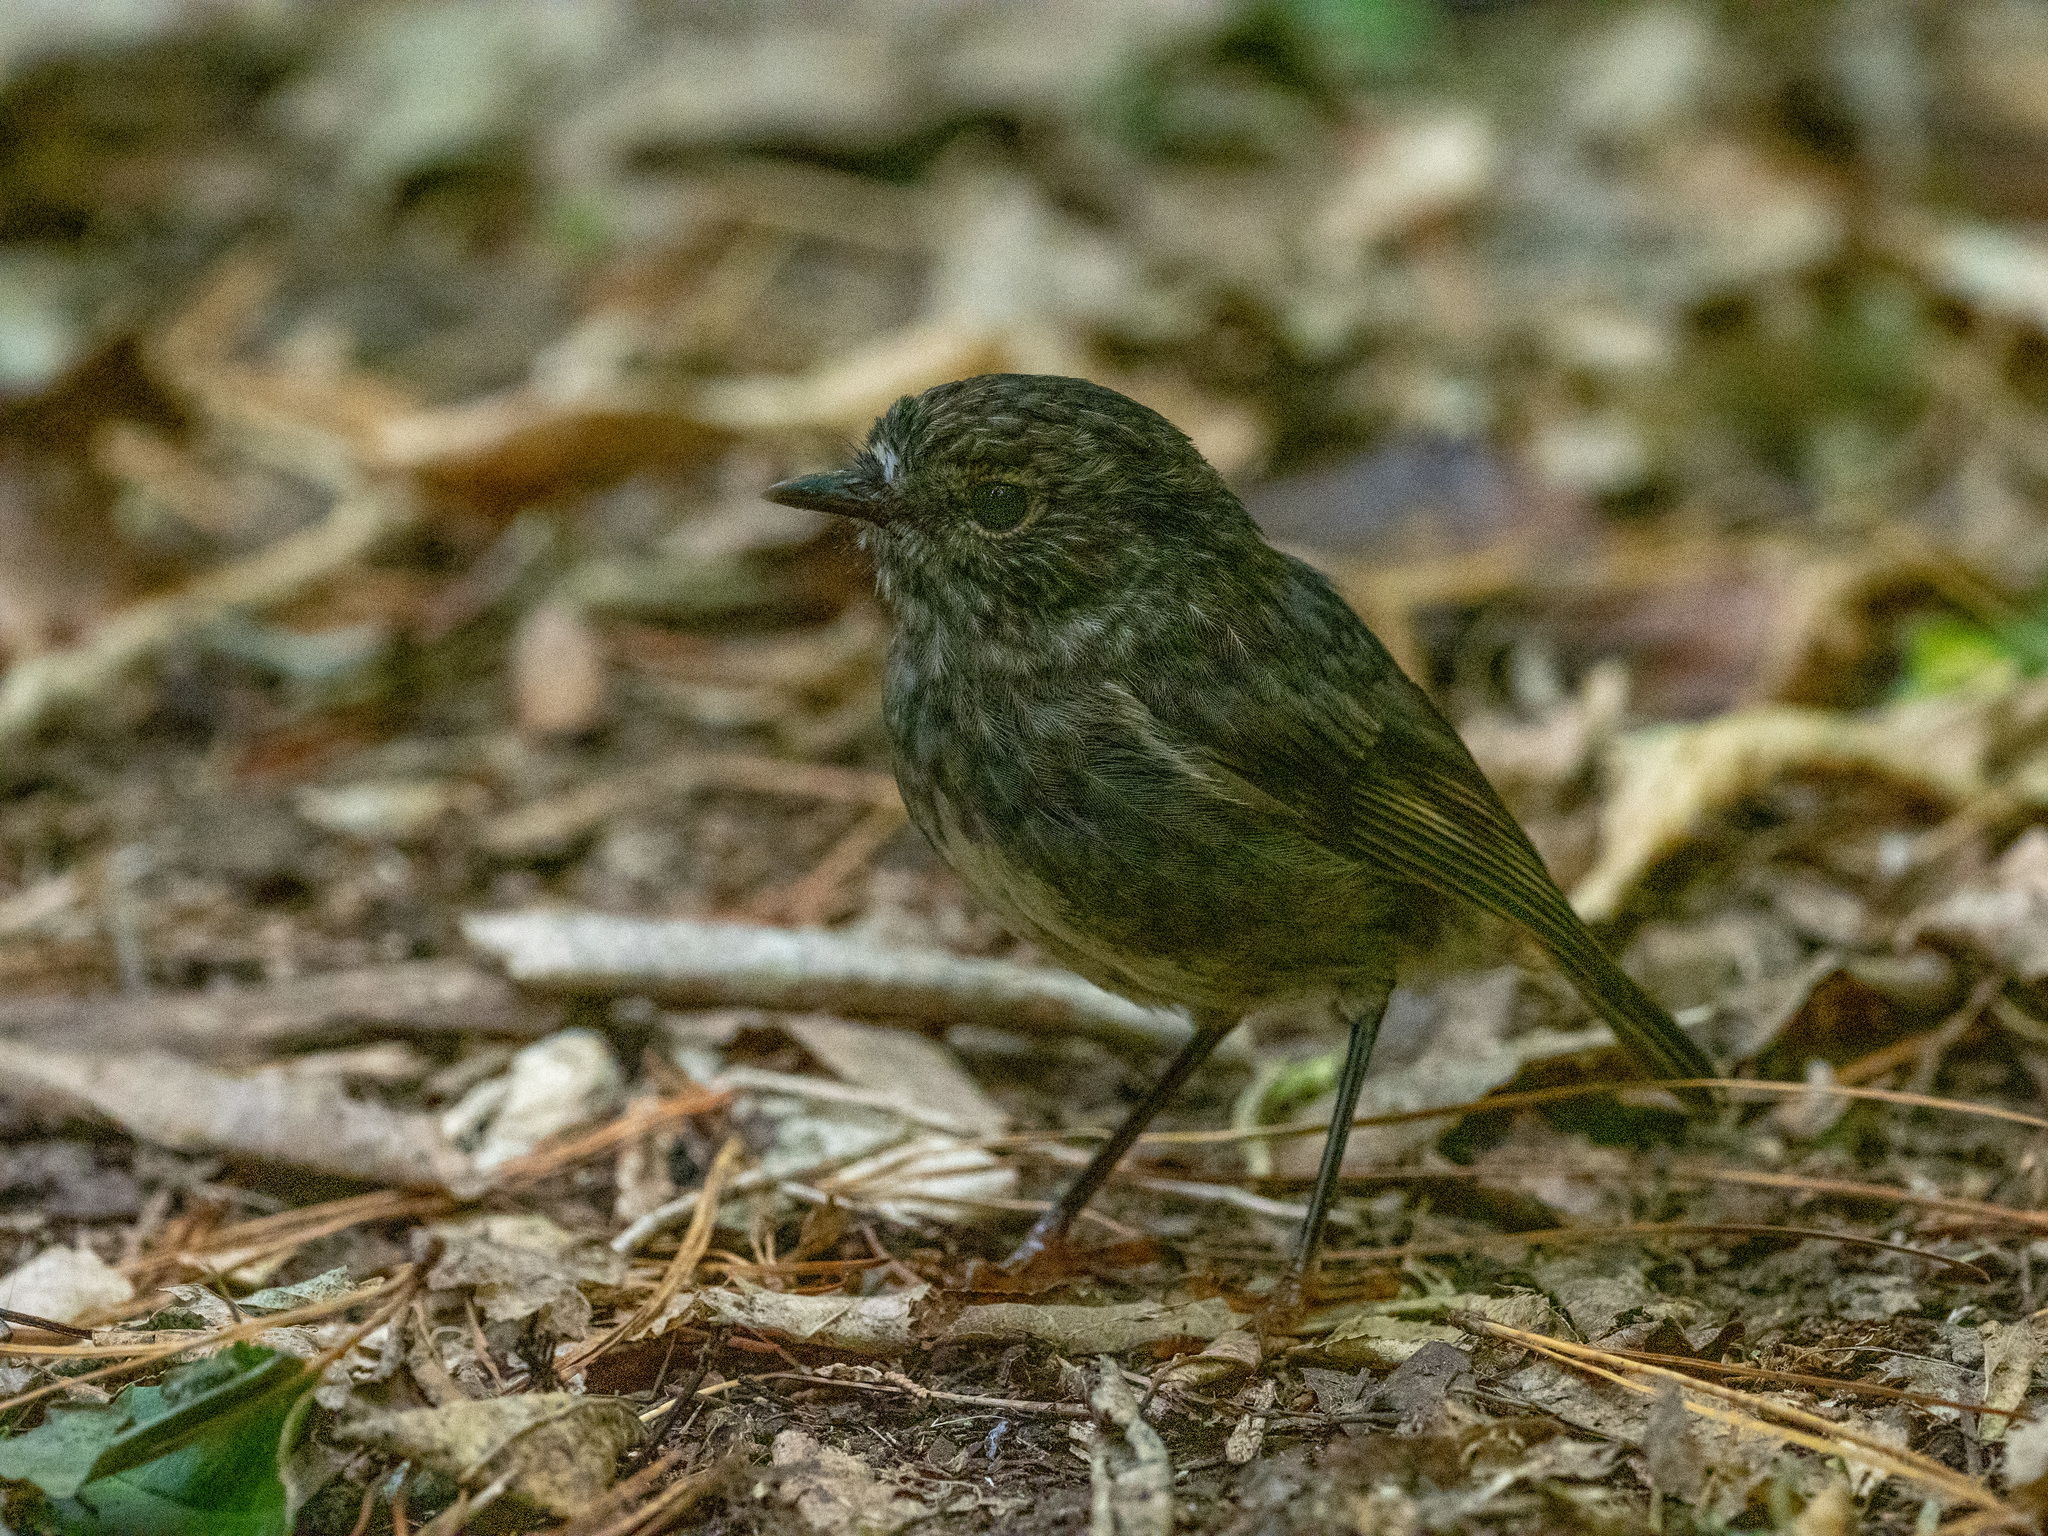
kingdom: Animalia
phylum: Chordata
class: Aves
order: Passeriformes
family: Petroicidae
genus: Petroica
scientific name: Petroica australis
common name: New zealand robin
